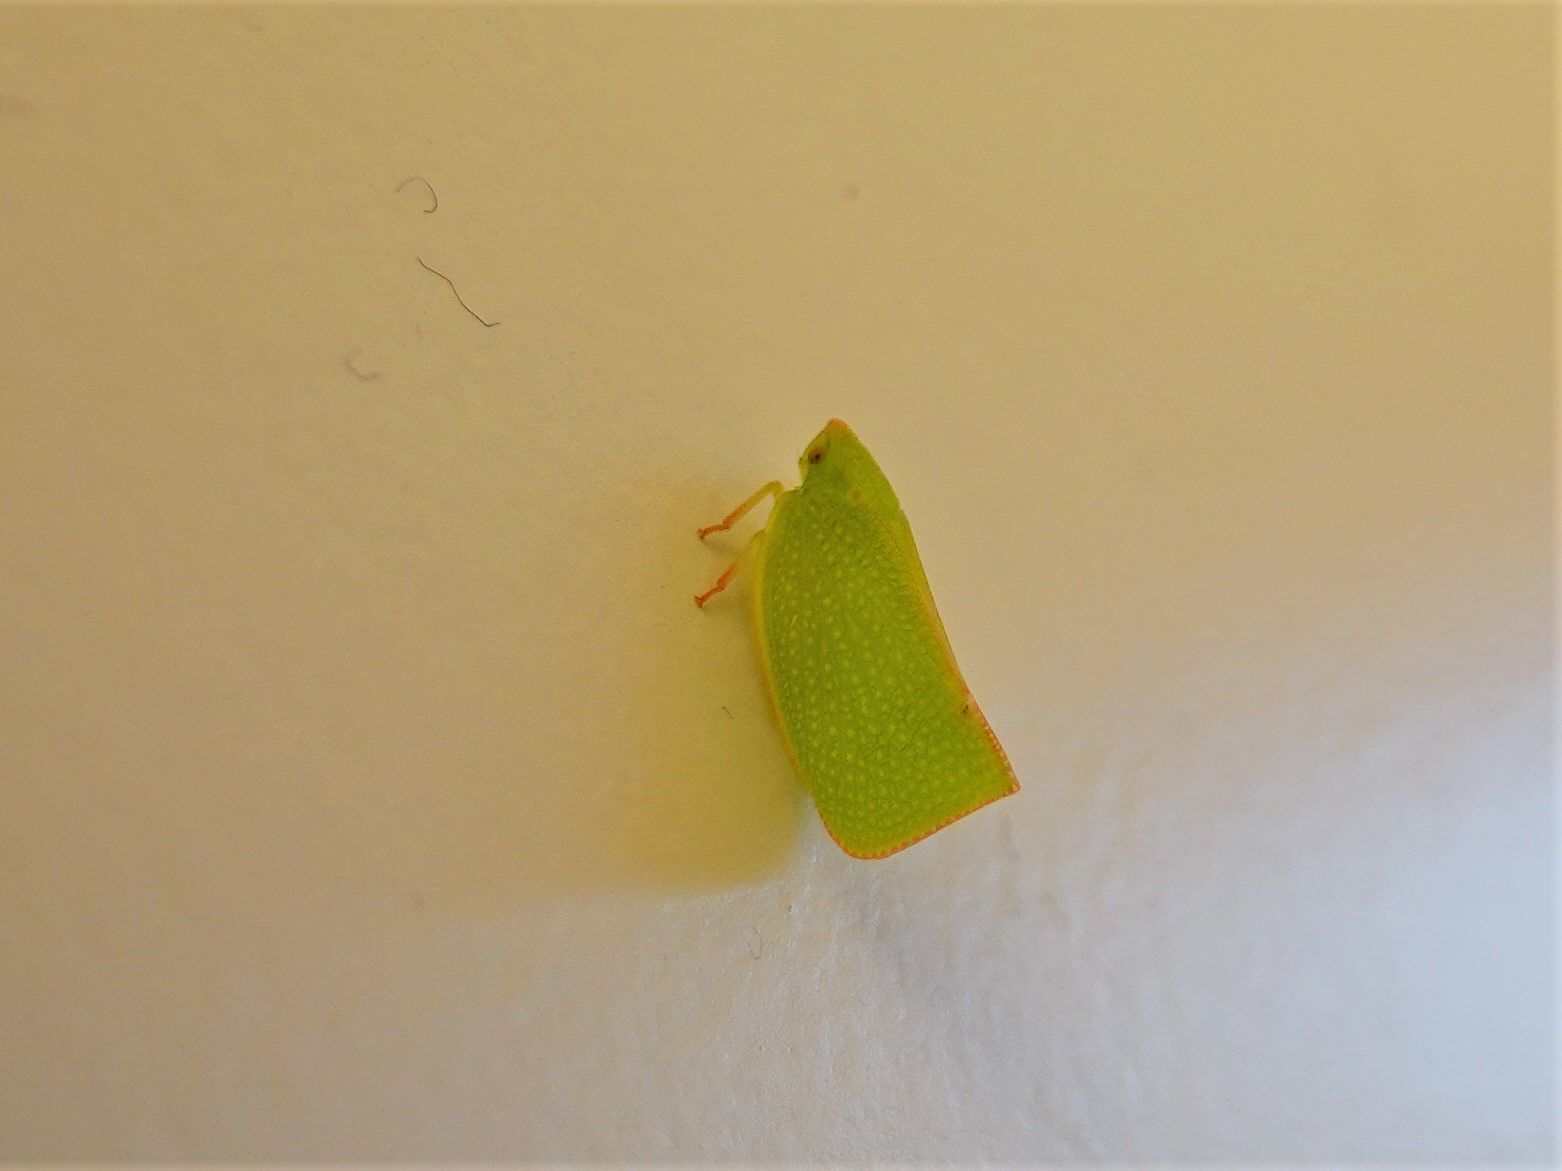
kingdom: Animalia
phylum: Arthropoda
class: Insecta
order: Hemiptera
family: Flatidae
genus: Siphanta
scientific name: Siphanta acuta
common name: Torpedo bug
